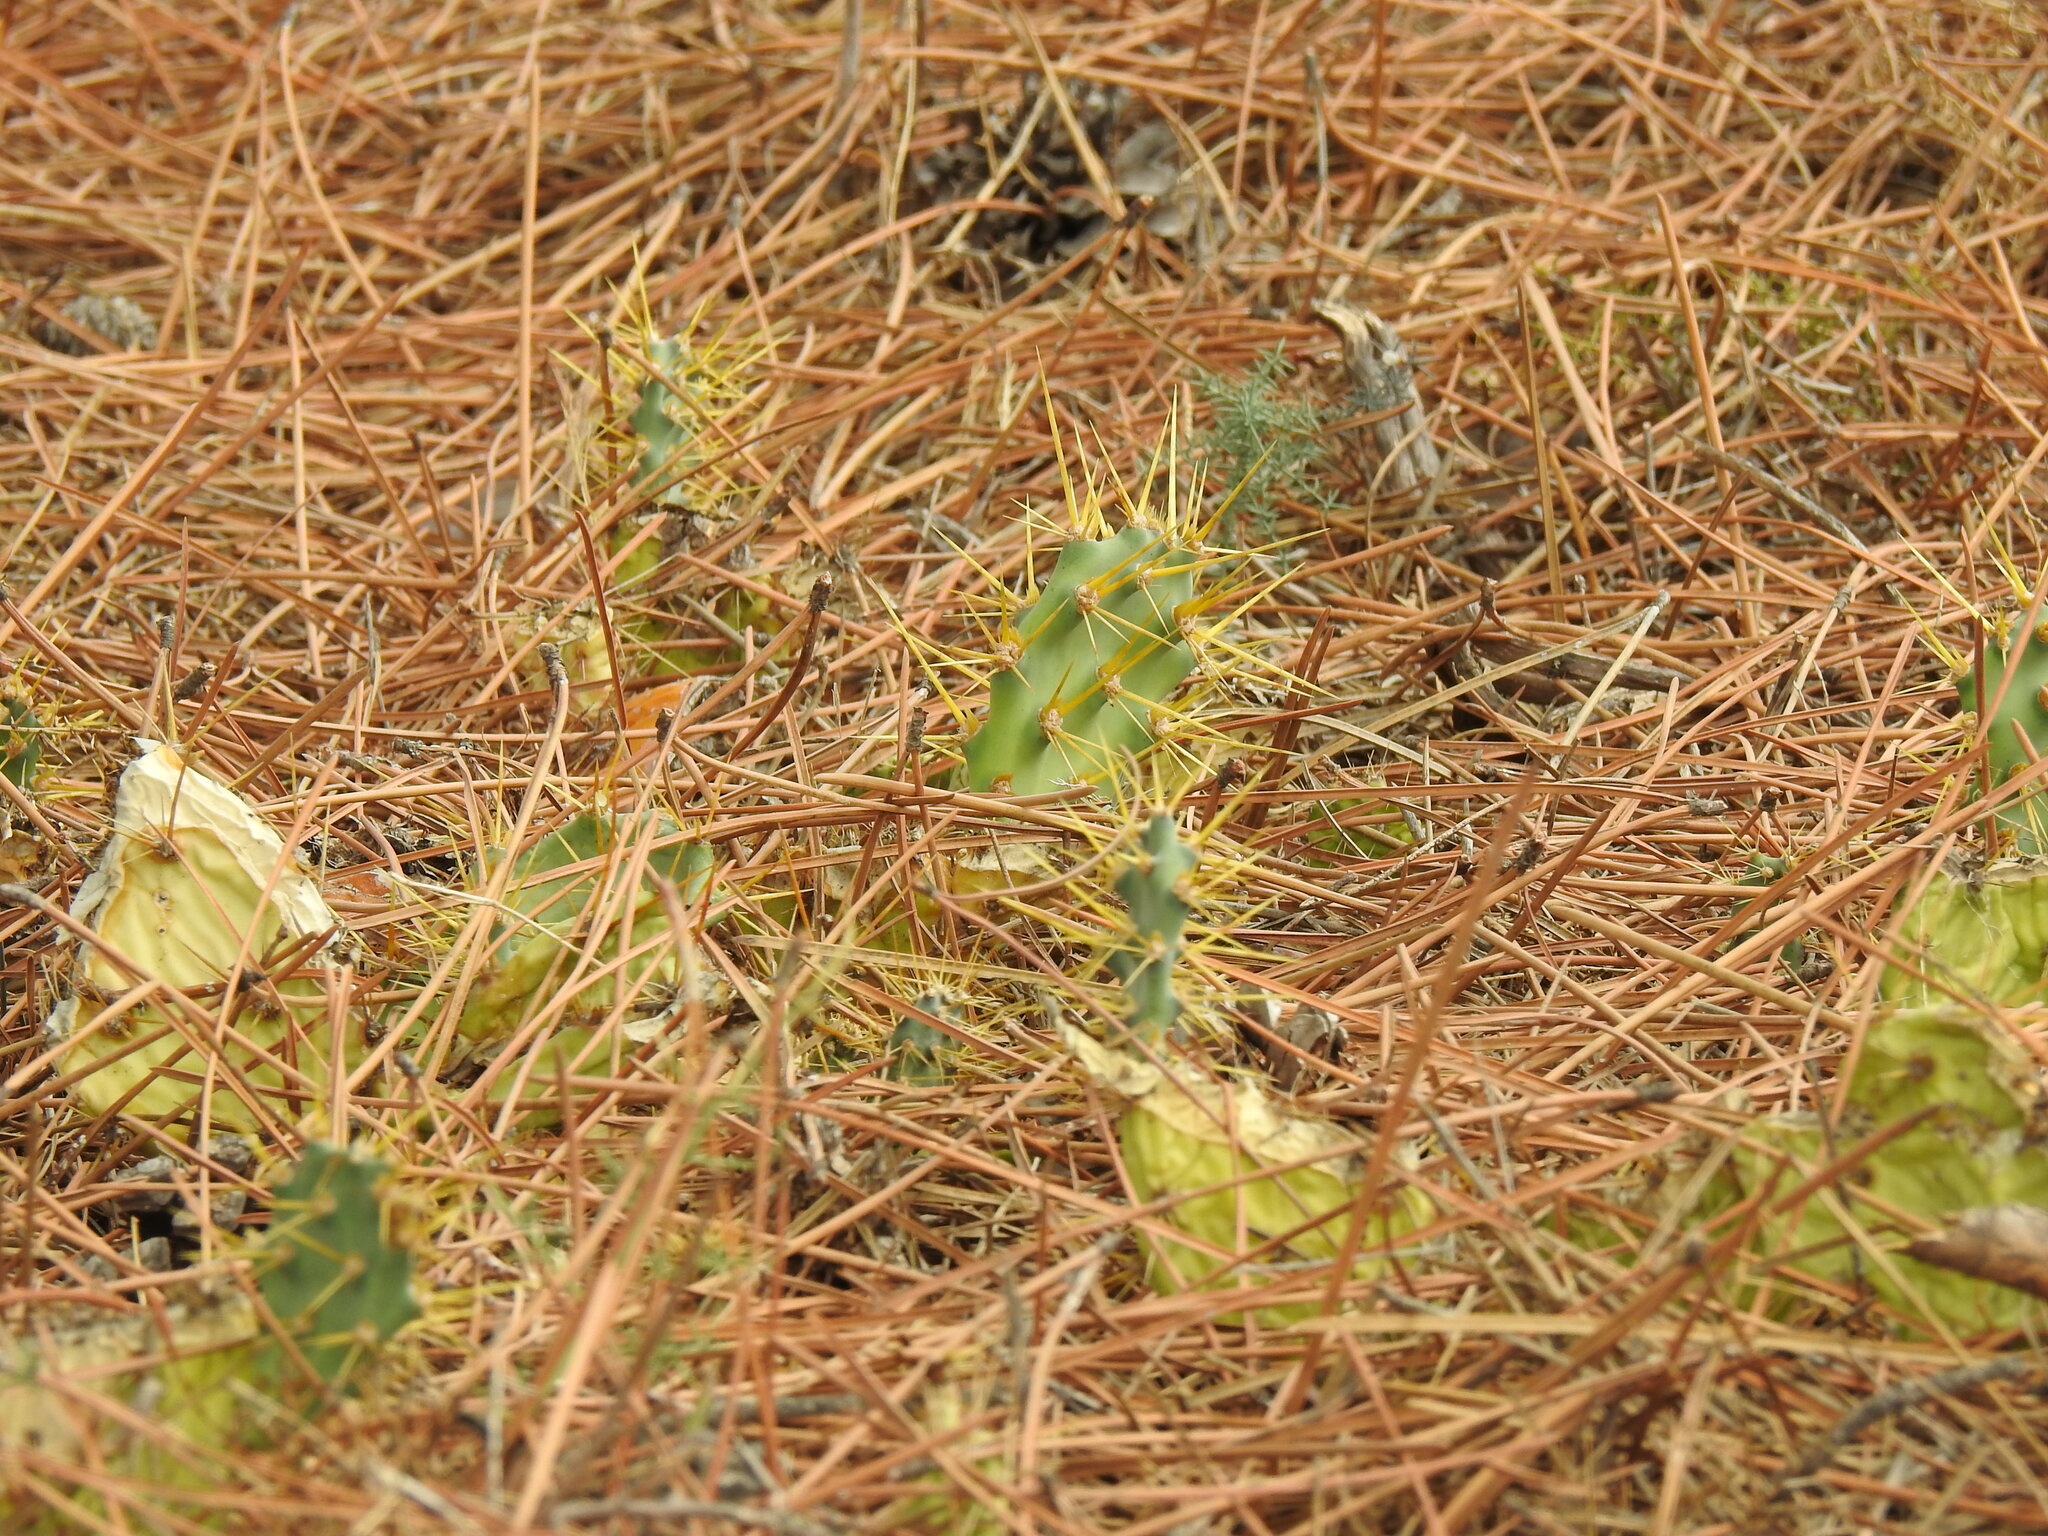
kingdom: Plantae
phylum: Tracheophyta
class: Magnoliopsida
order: Caryophyllales
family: Cactaceae
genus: Opuntia
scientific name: Opuntia stricta
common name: Erect pricklypear
